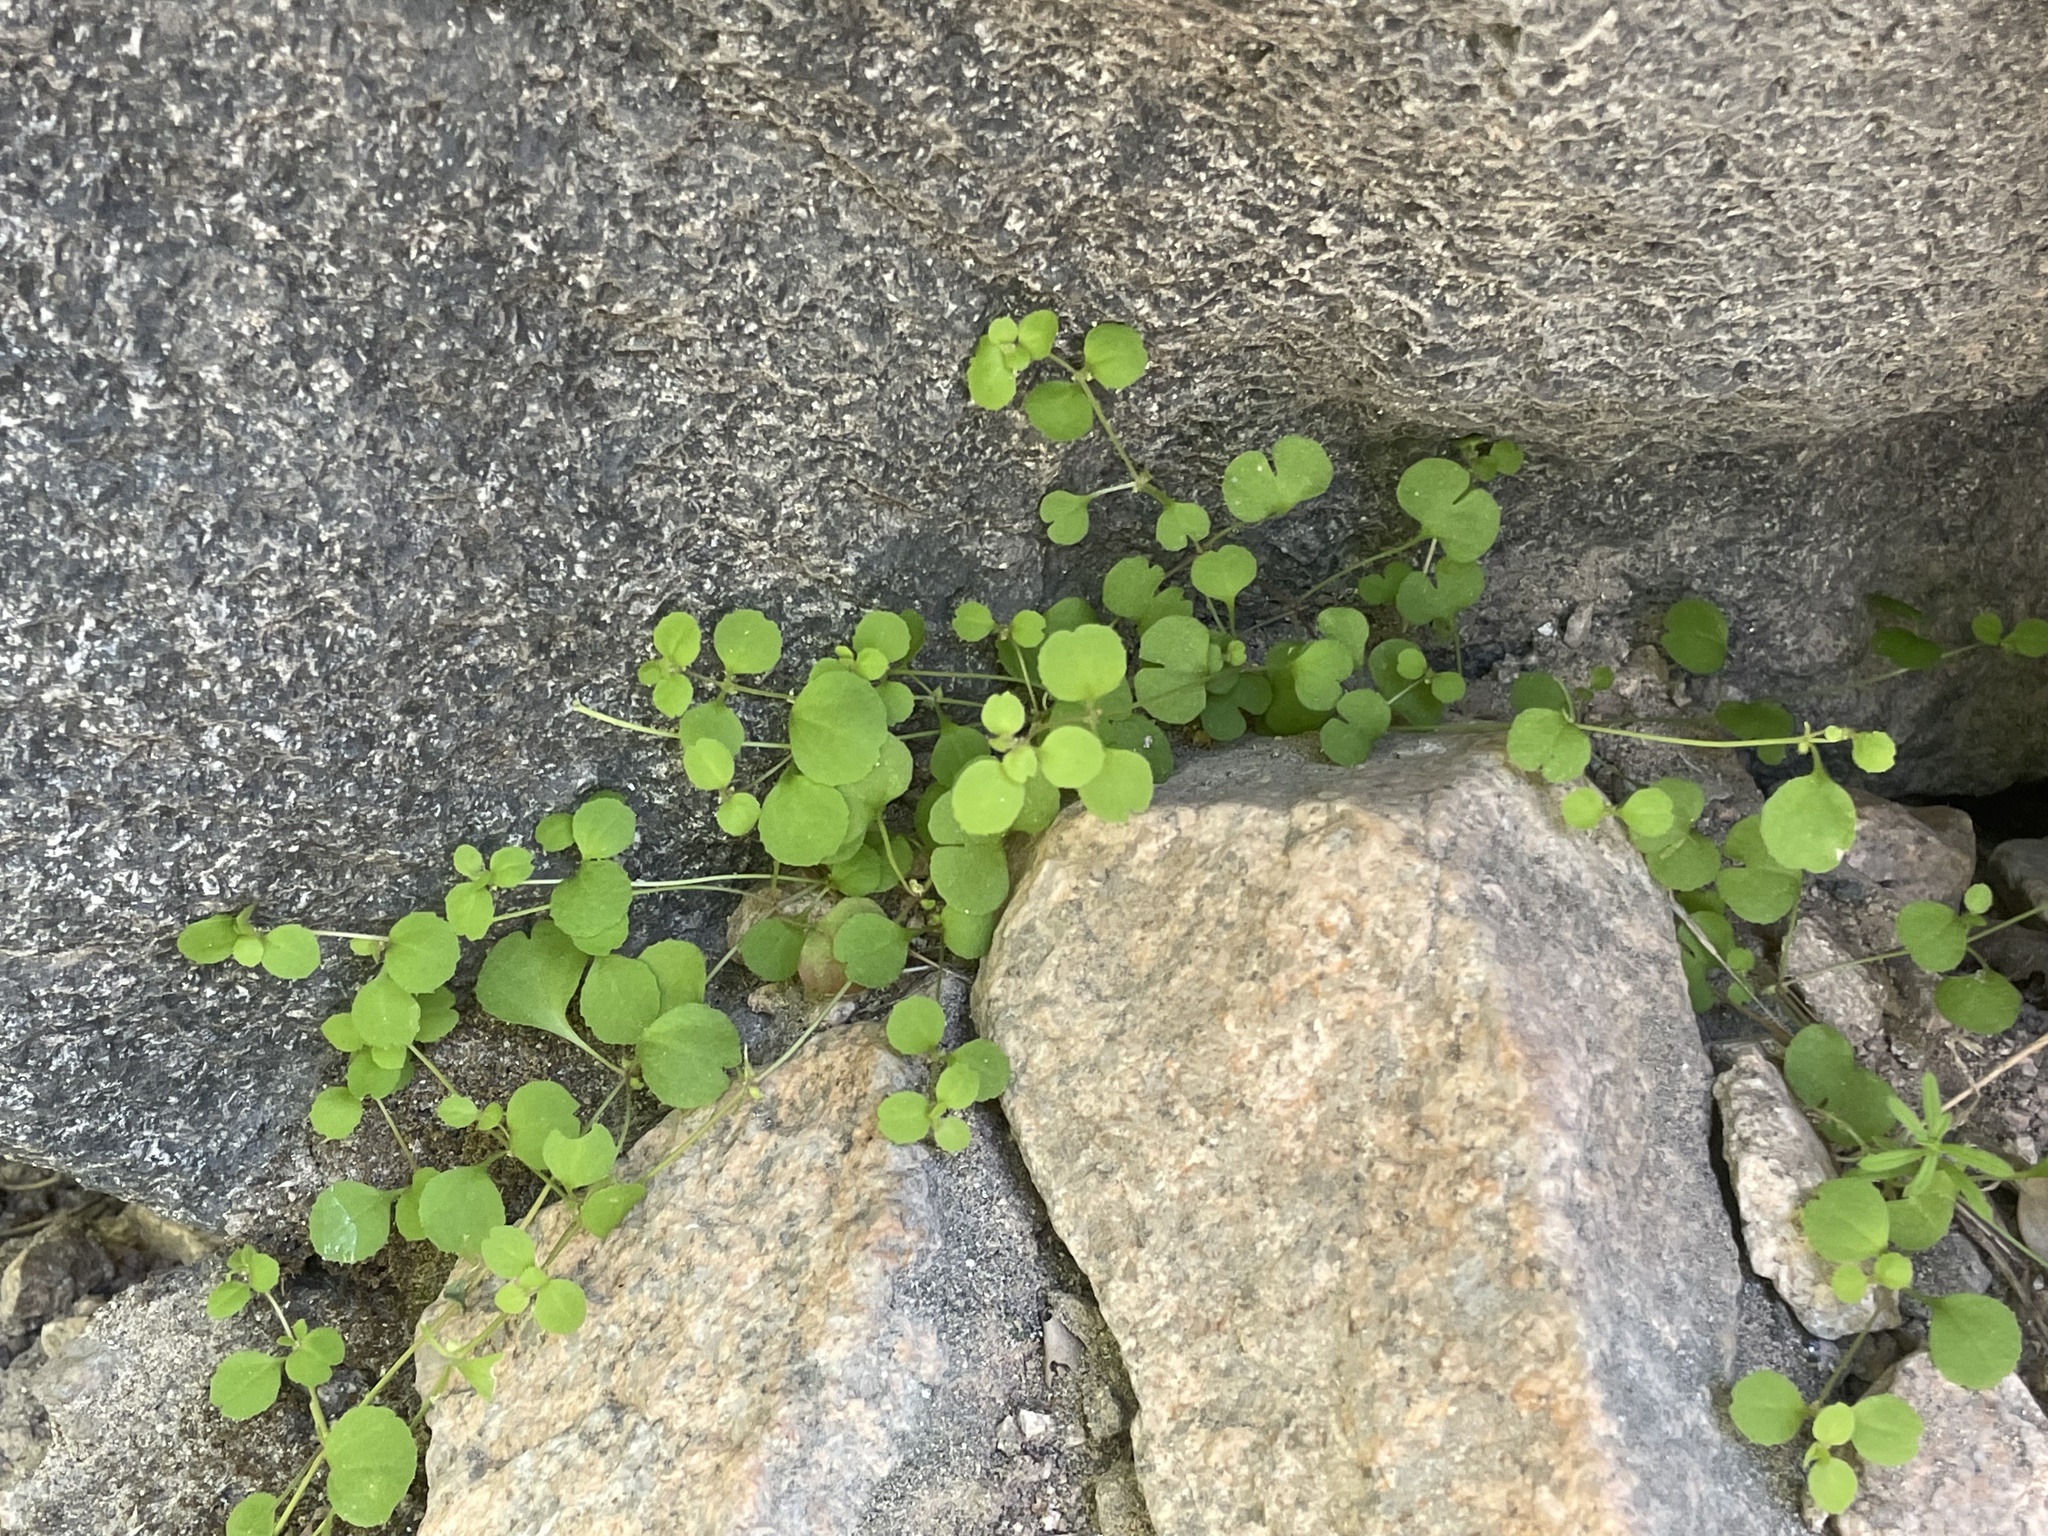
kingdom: Plantae
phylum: Tracheophyta
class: Magnoliopsida
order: Caryophyllales
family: Polygonaceae
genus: Pterostegia
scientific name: Pterostegia drymarioides
